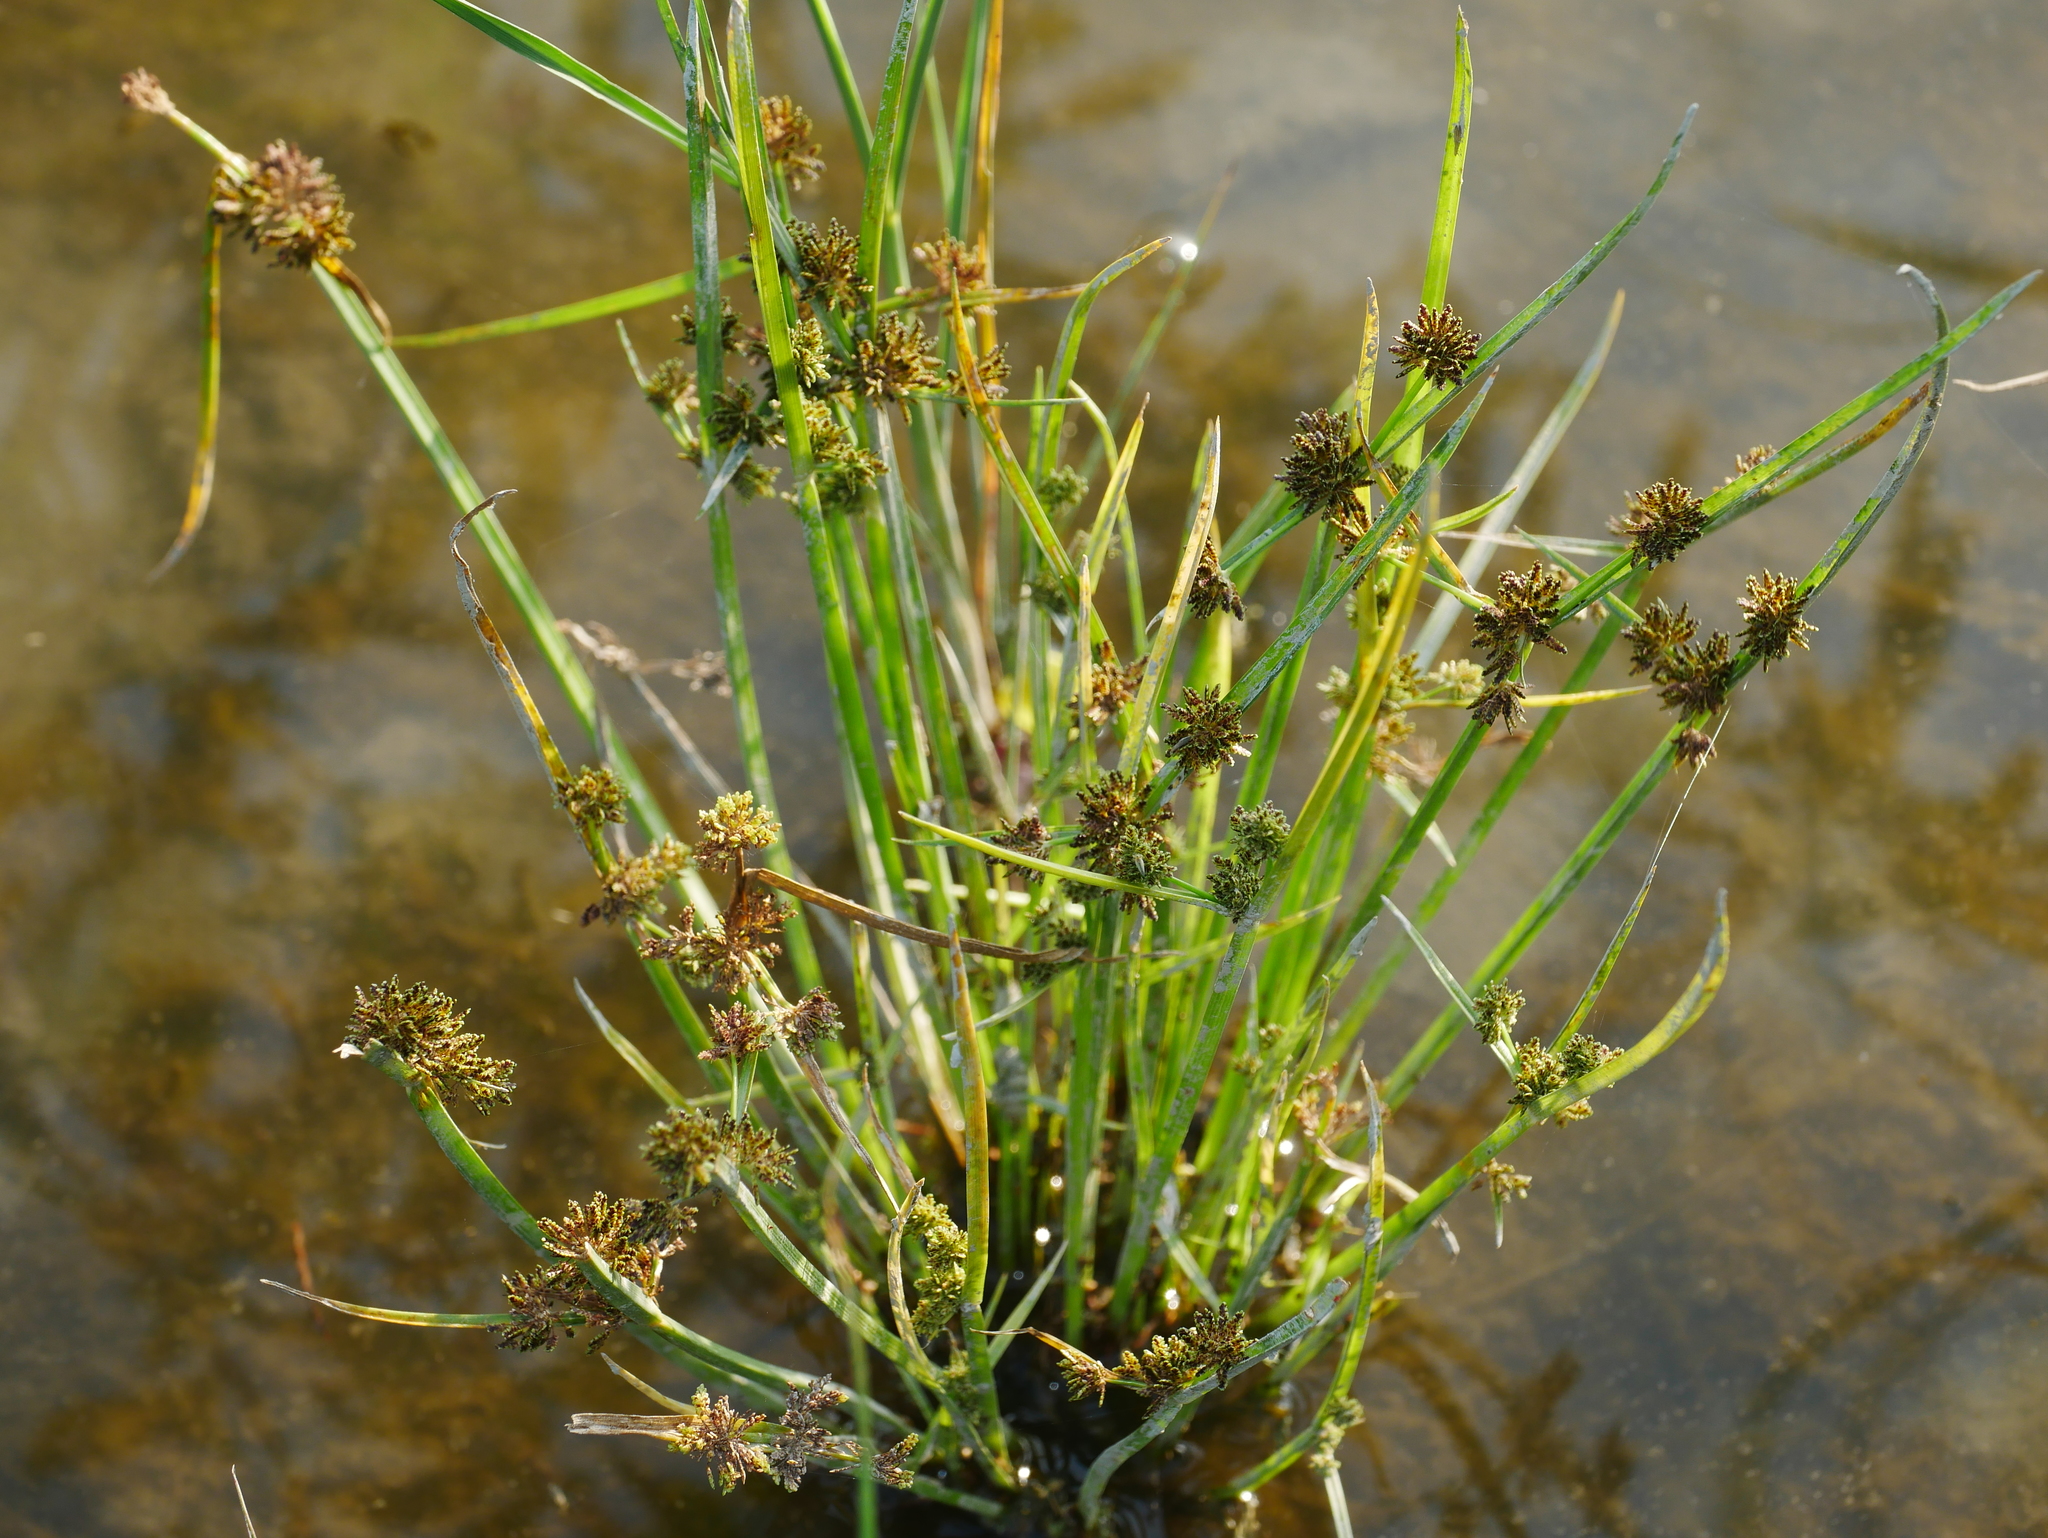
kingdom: Plantae
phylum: Tracheophyta
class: Liliopsida
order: Poales
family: Cyperaceae
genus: Cyperus
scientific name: Cyperus difformis
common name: Variable flatsedge
